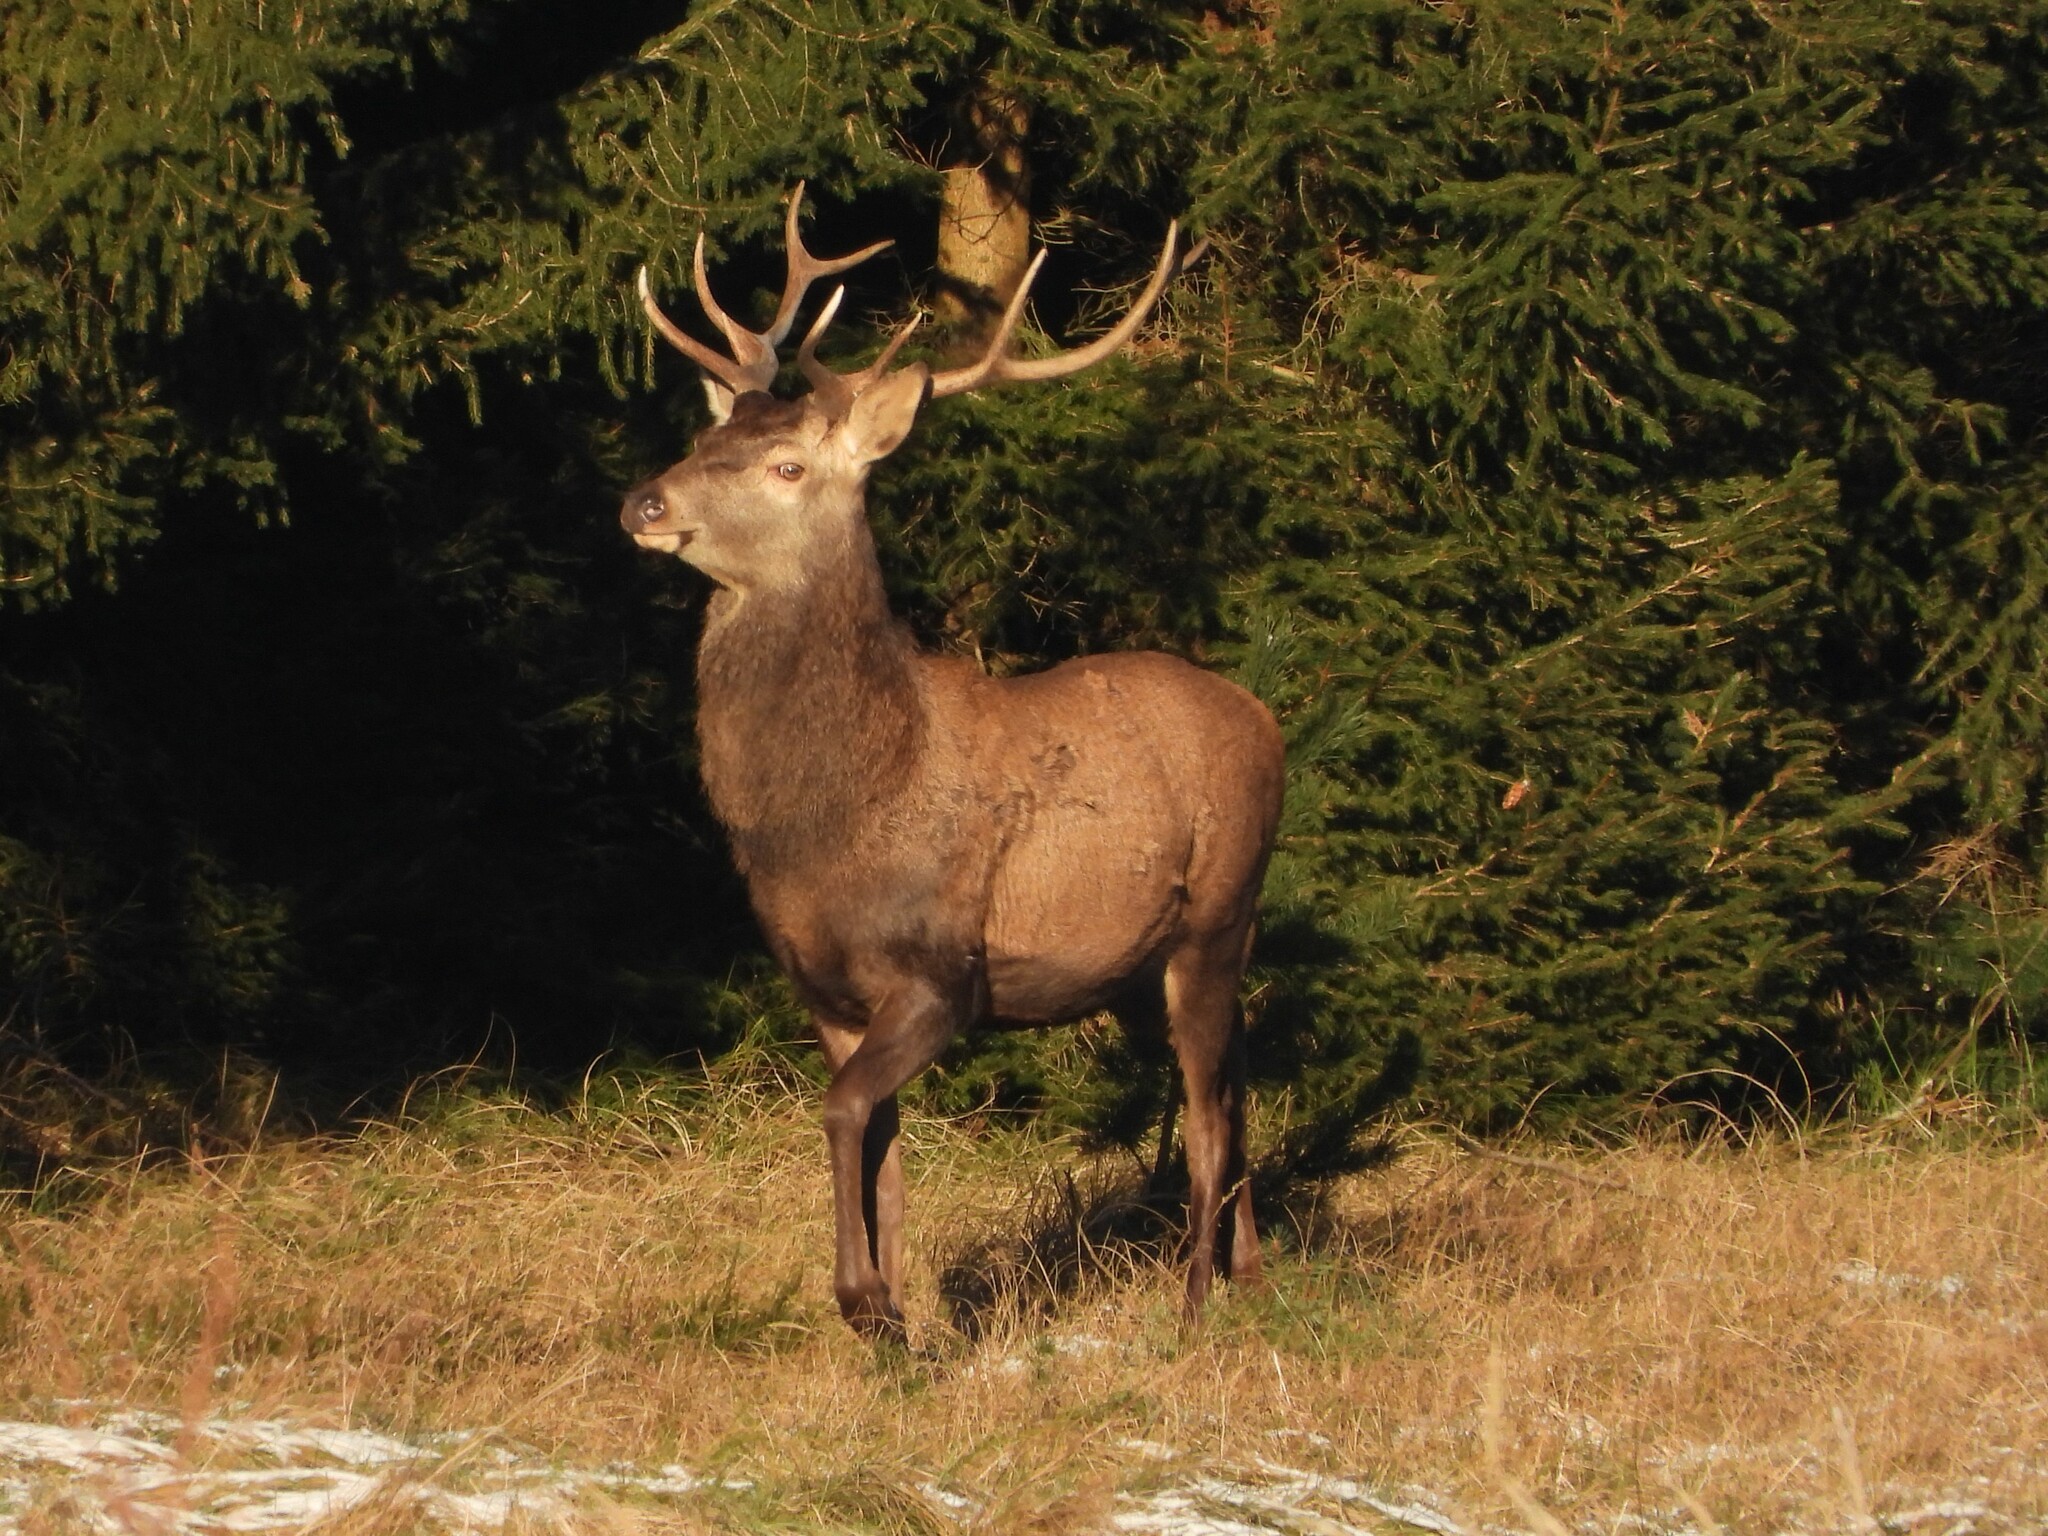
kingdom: Animalia
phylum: Chordata
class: Mammalia
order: Artiodactyla
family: Cervidae
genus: Cervus
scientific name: Cervus elaphus
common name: Red deer
